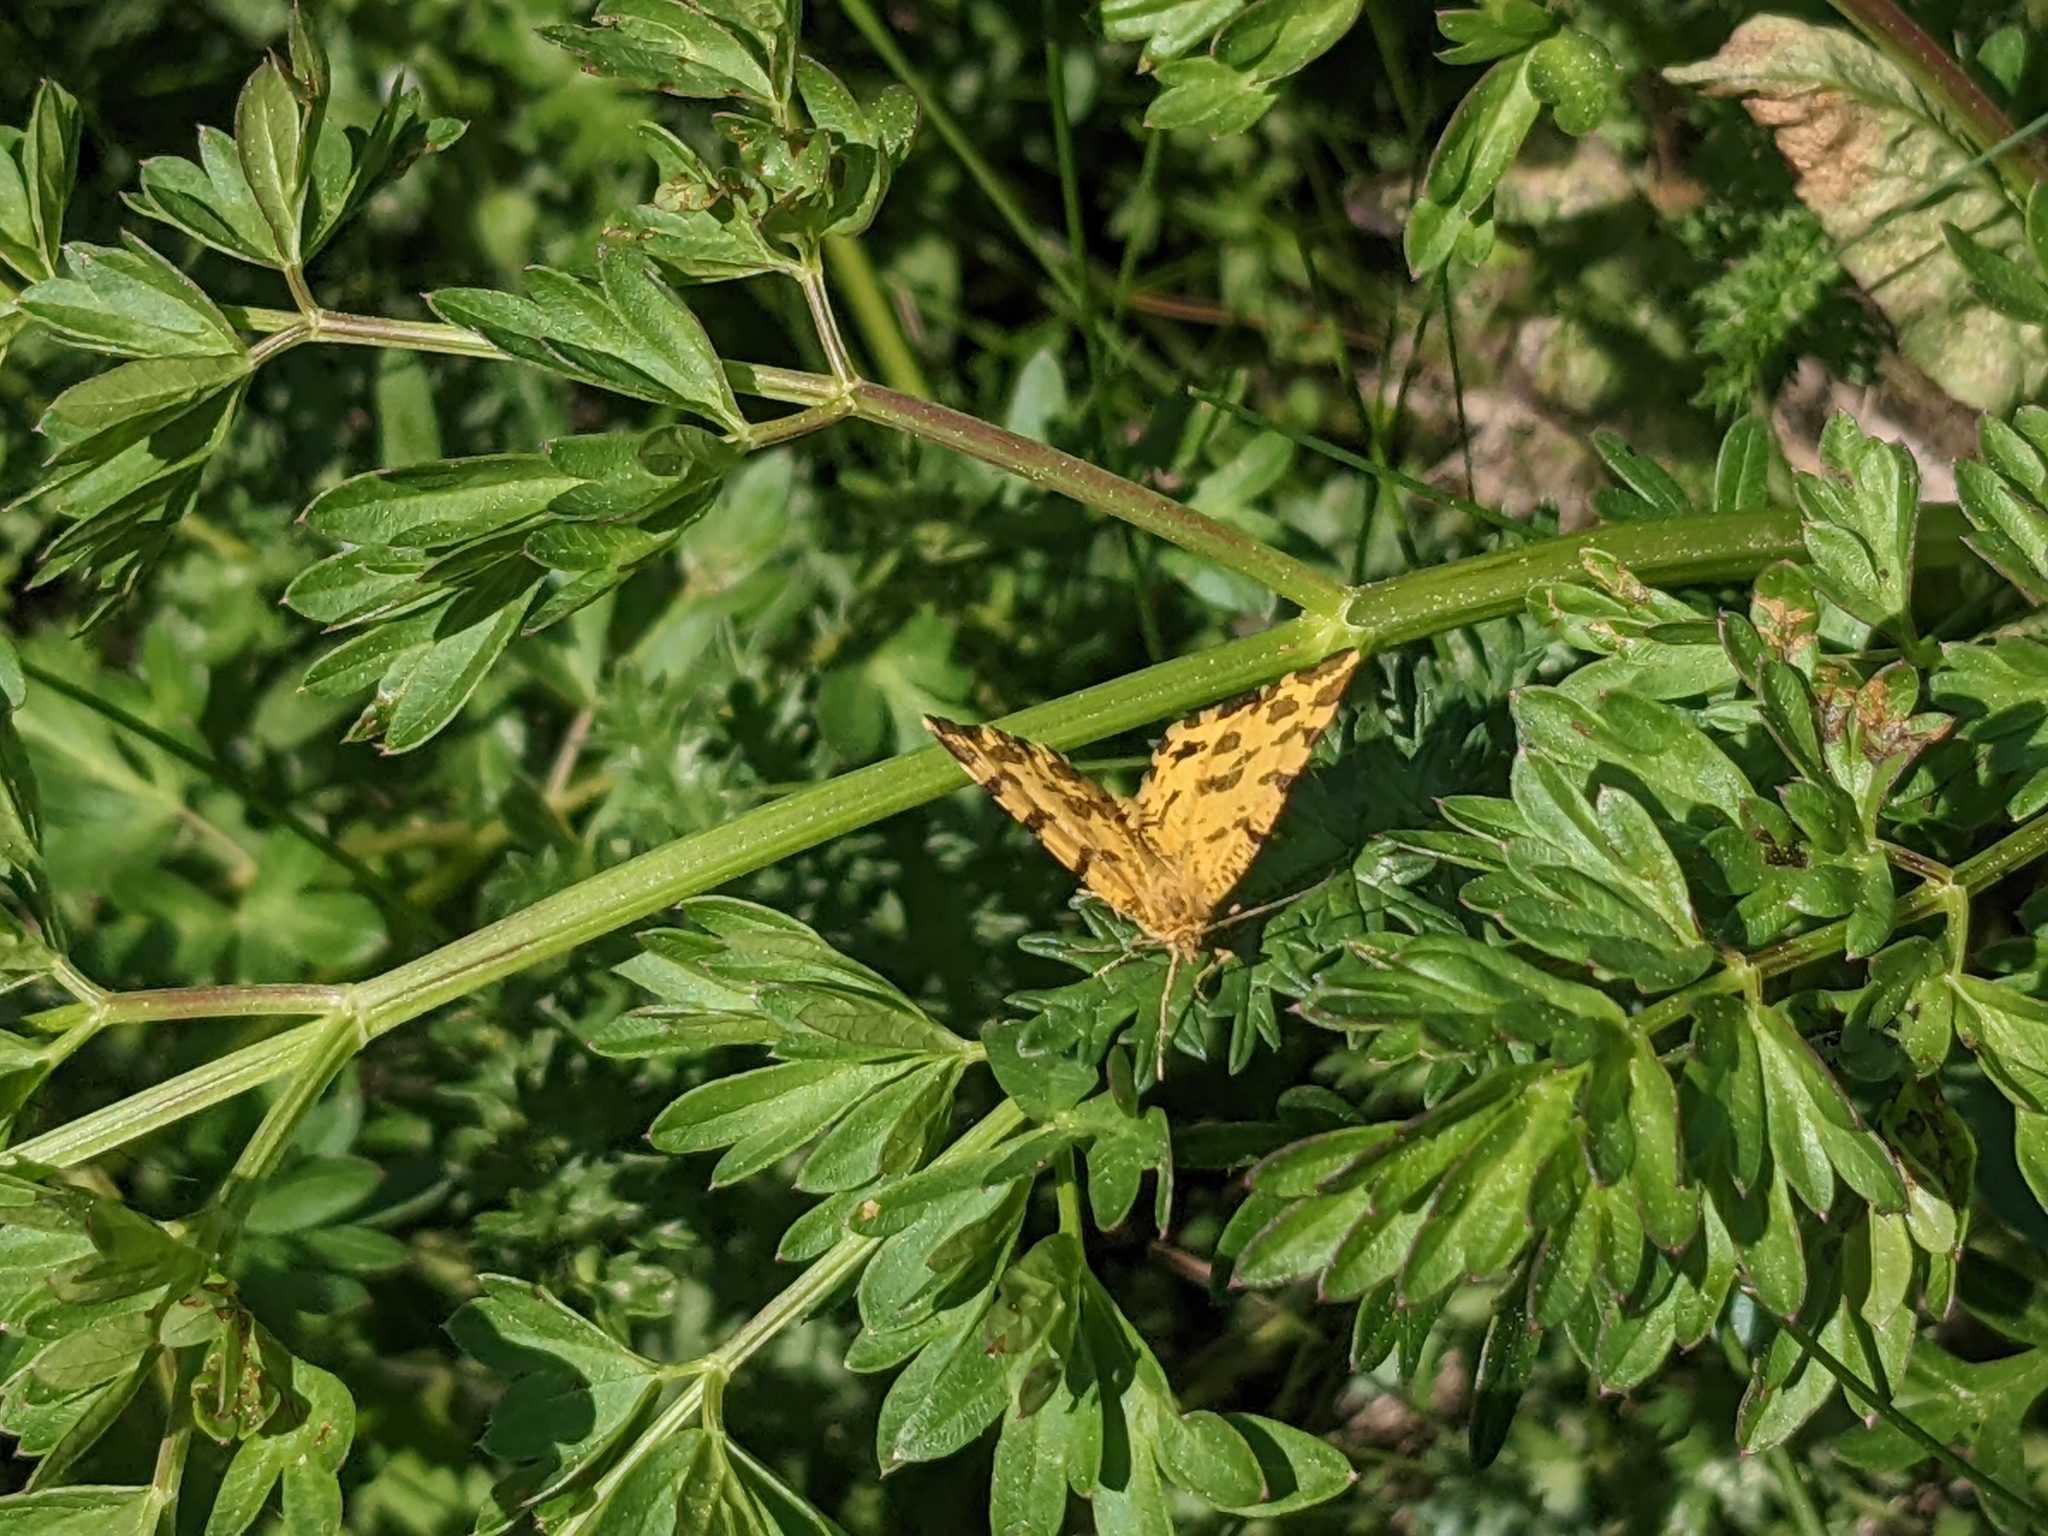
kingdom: Animalia
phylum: Arthropoda
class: Insecta
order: Lepidoptera
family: Geometridae
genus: Pseudopanthera
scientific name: Pseudopanthera macularia
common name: Speckled yellow
